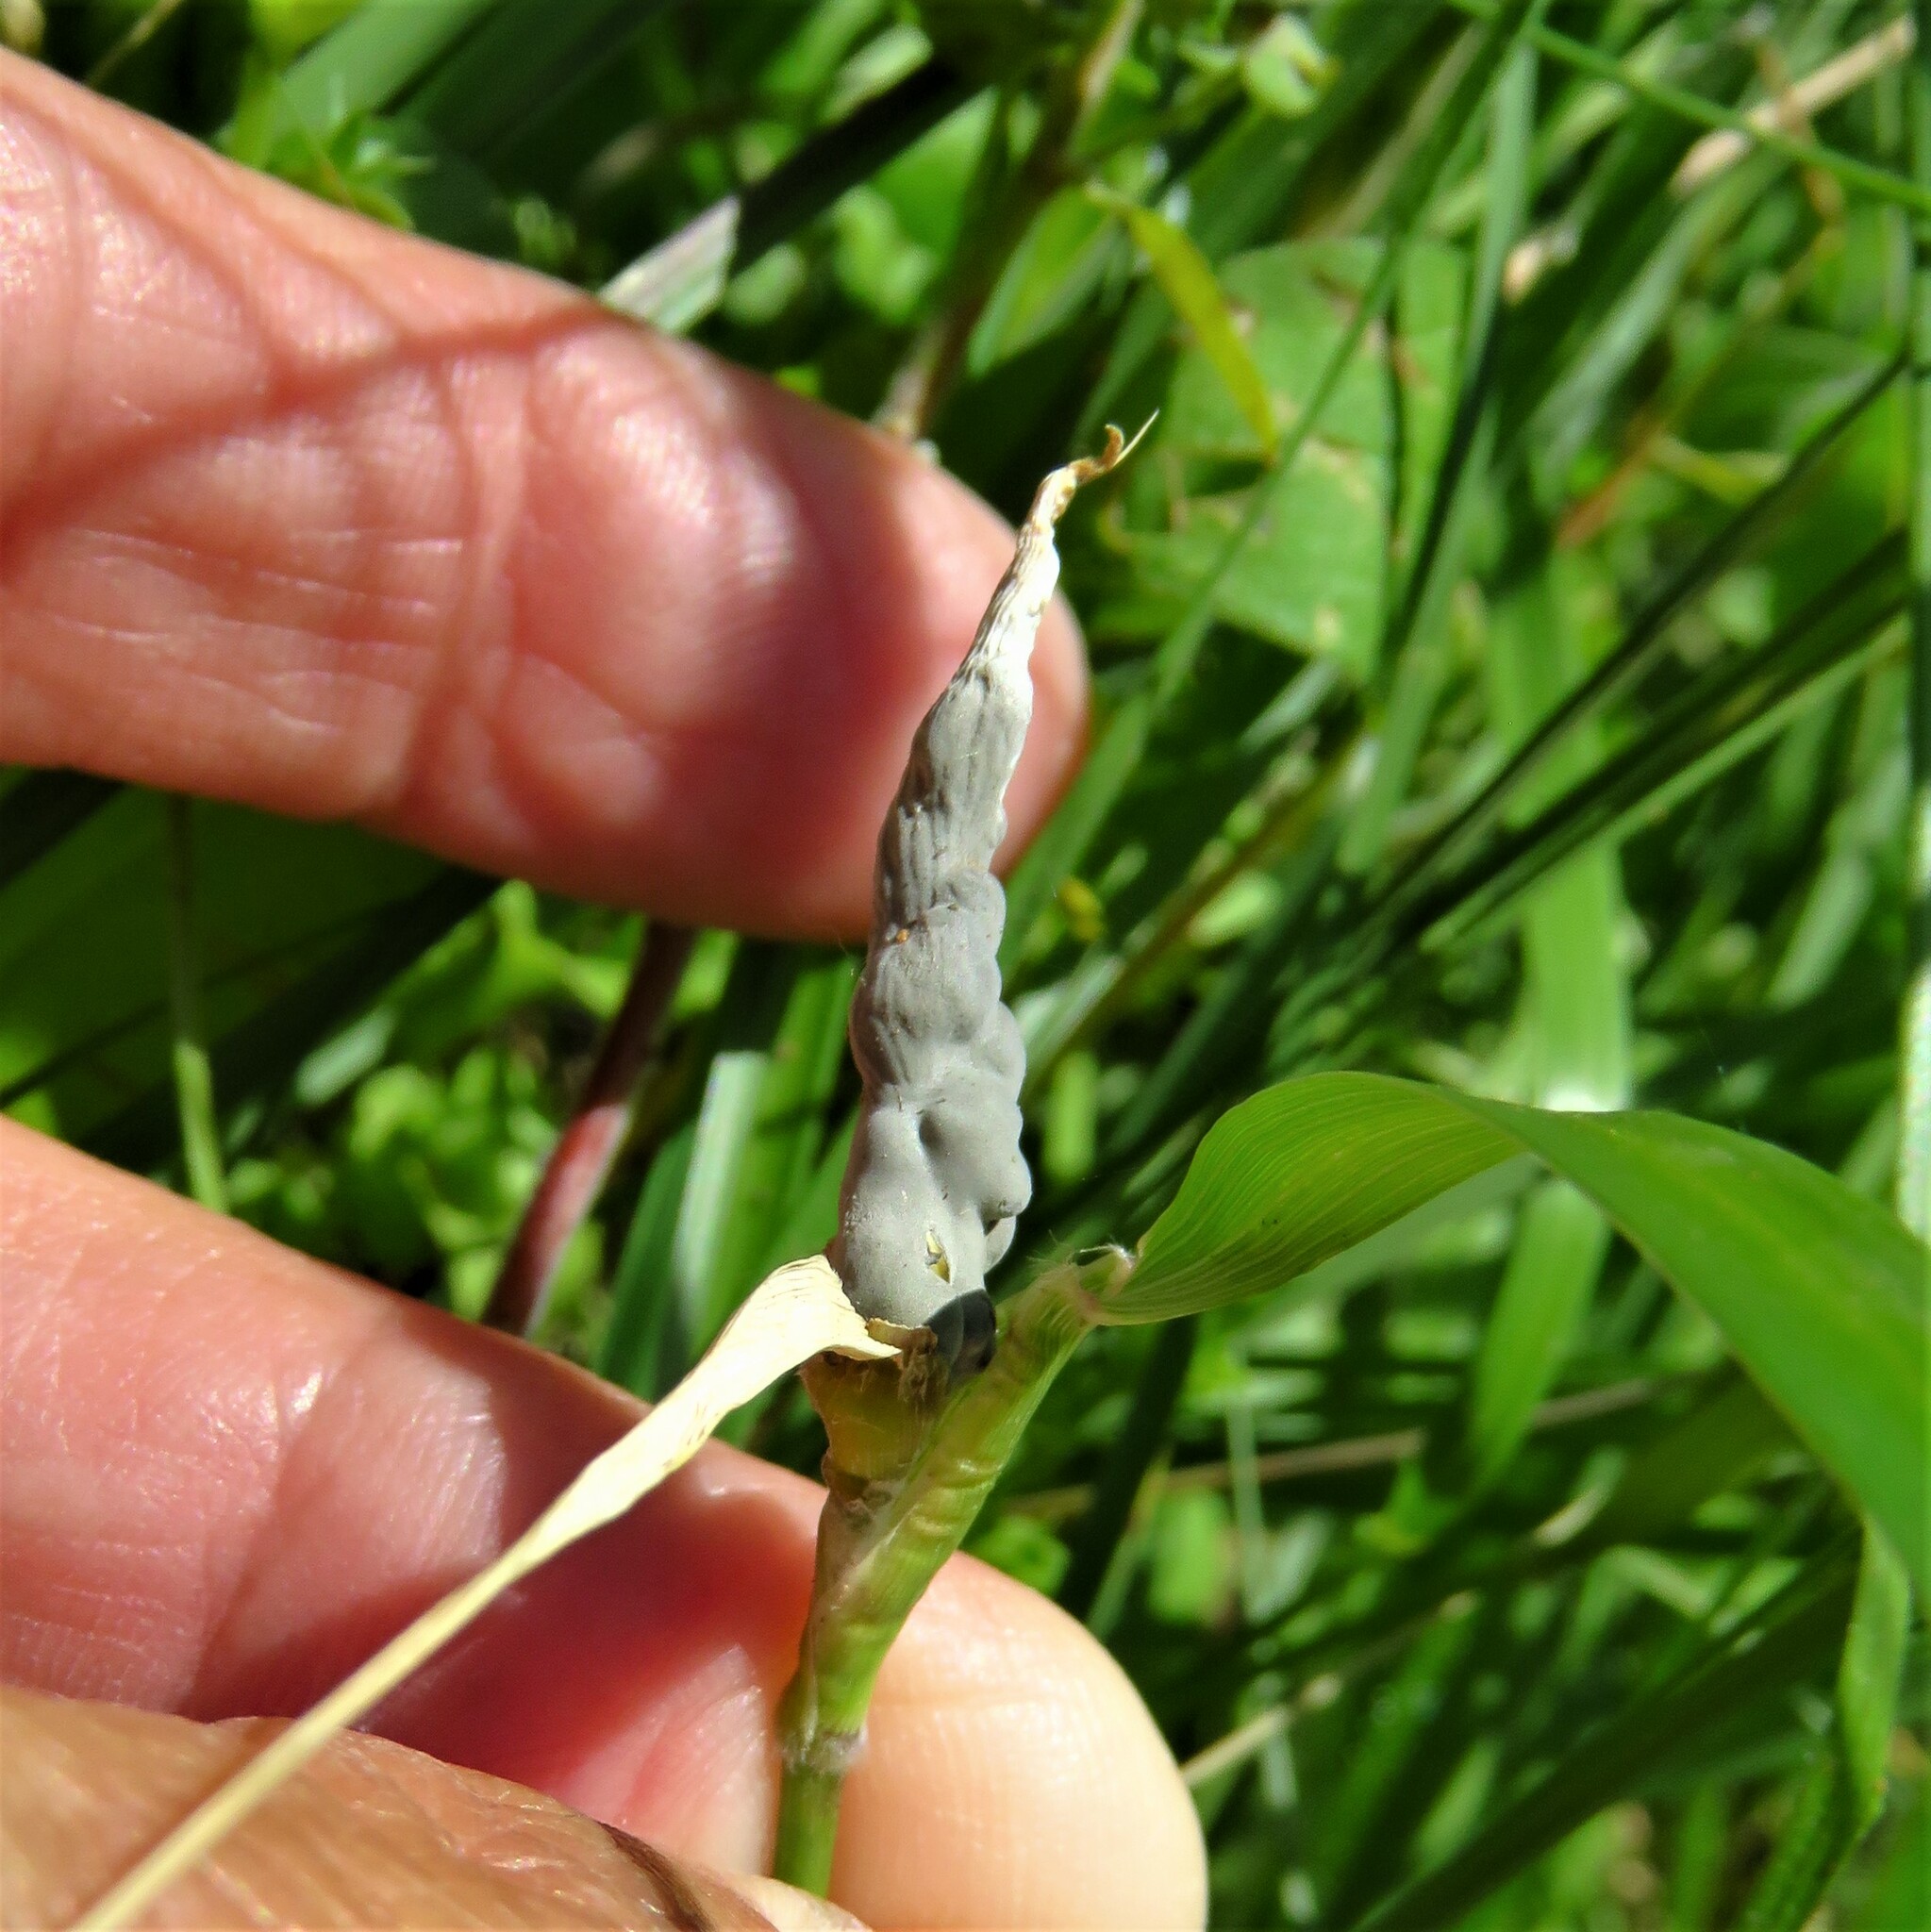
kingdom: Fungi
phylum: Ascomycota
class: Sordariomycetes
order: Hypocreales
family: Clavicipitaceae
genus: Atkinsonella
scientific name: Atkinsonella texensis
